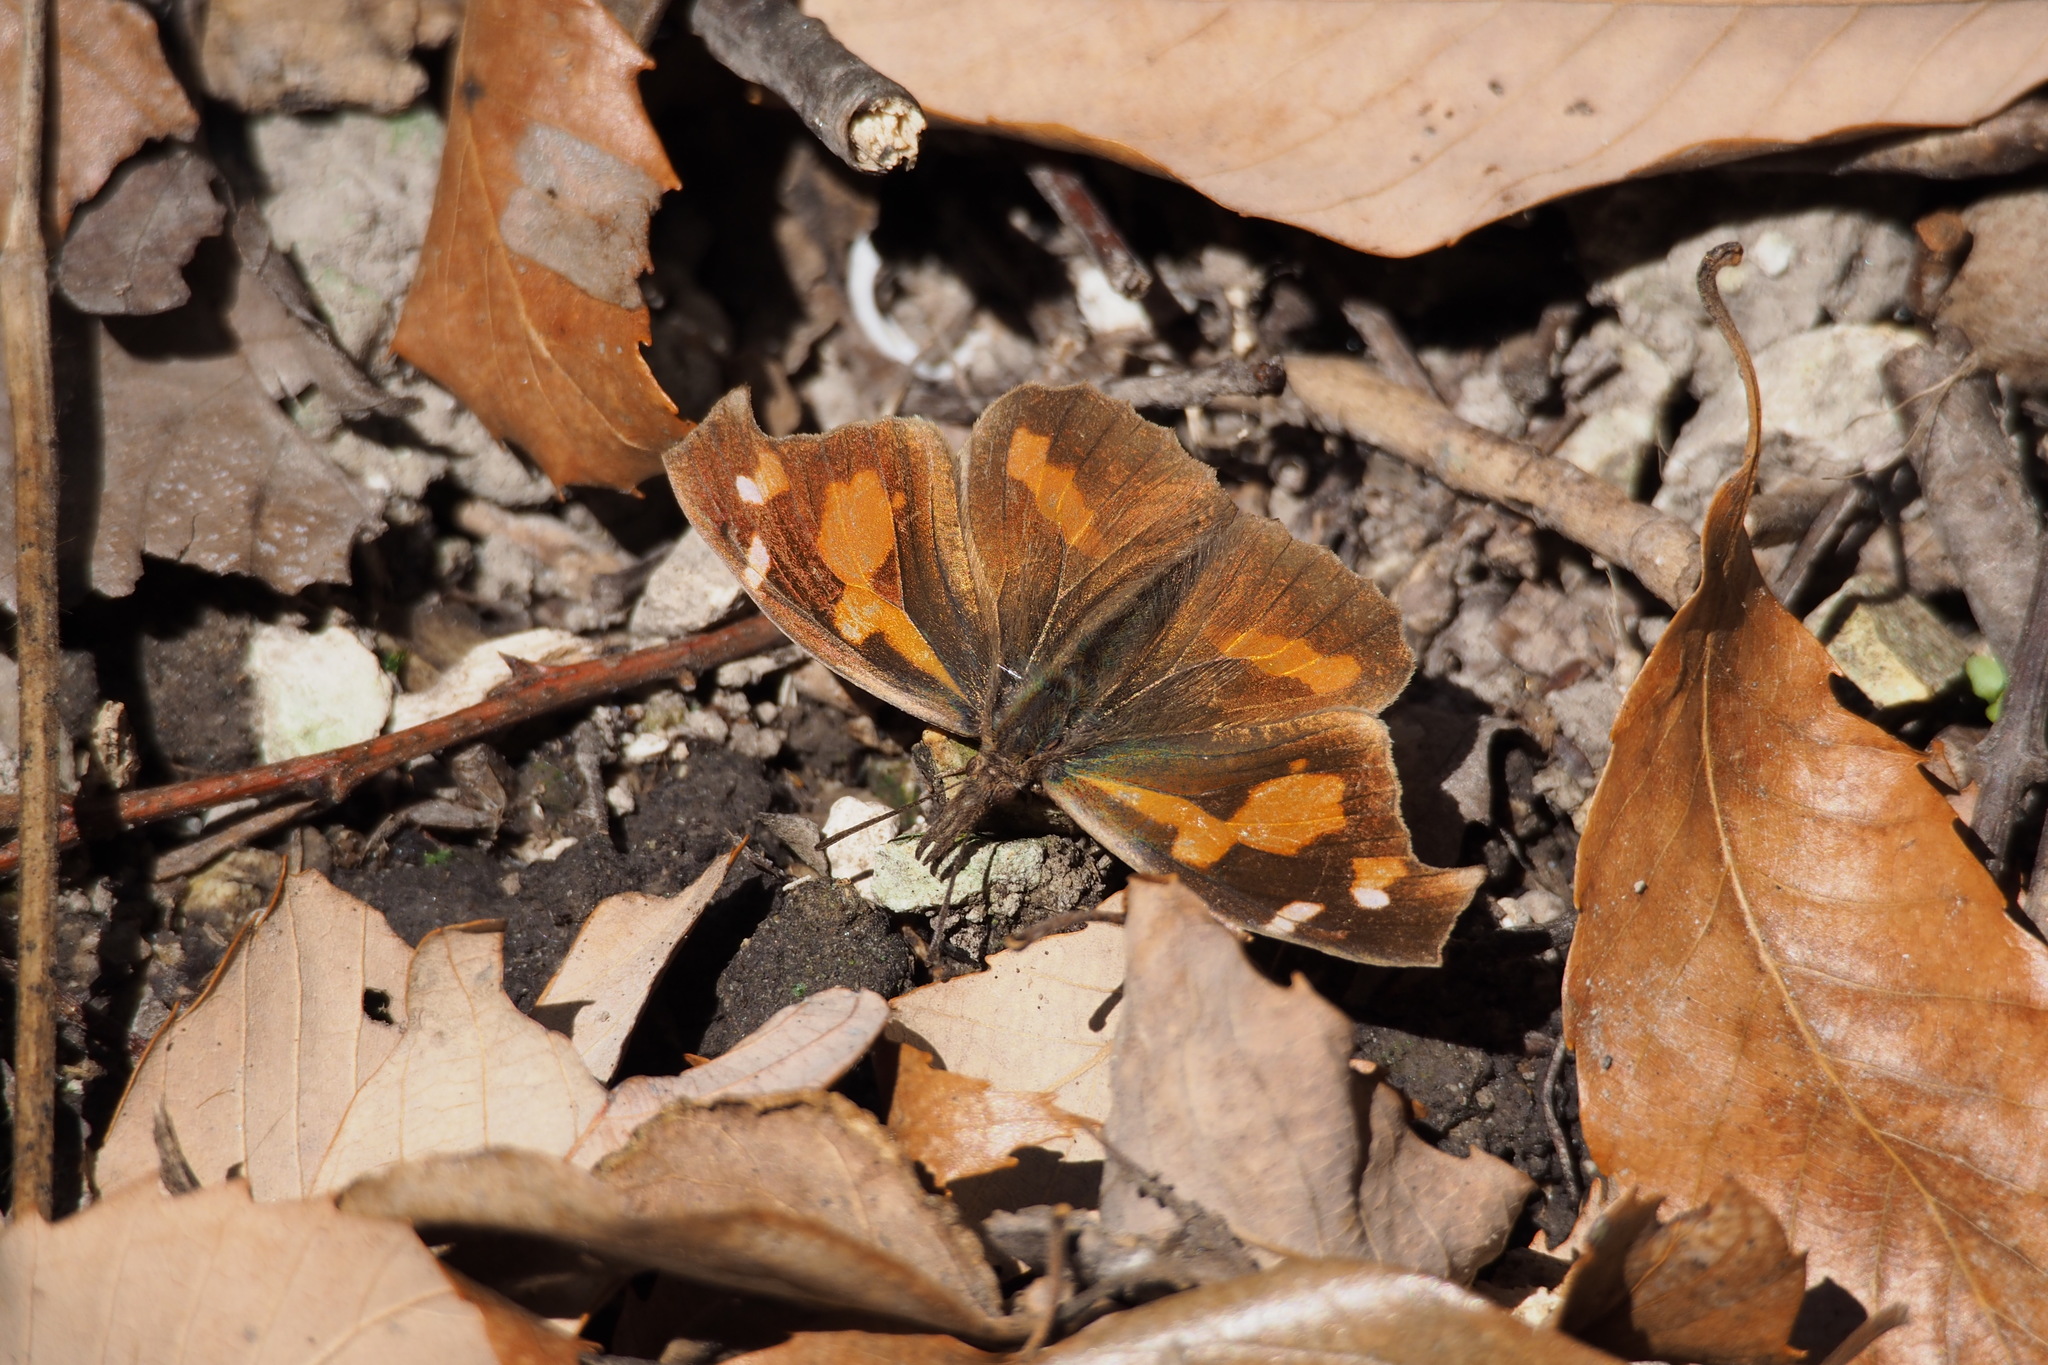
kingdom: Animalia
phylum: Arthropoda
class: Insecta
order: Lepidoptera
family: Nymphalidae
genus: Libythea
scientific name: Libythea lepita
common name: Common beak
